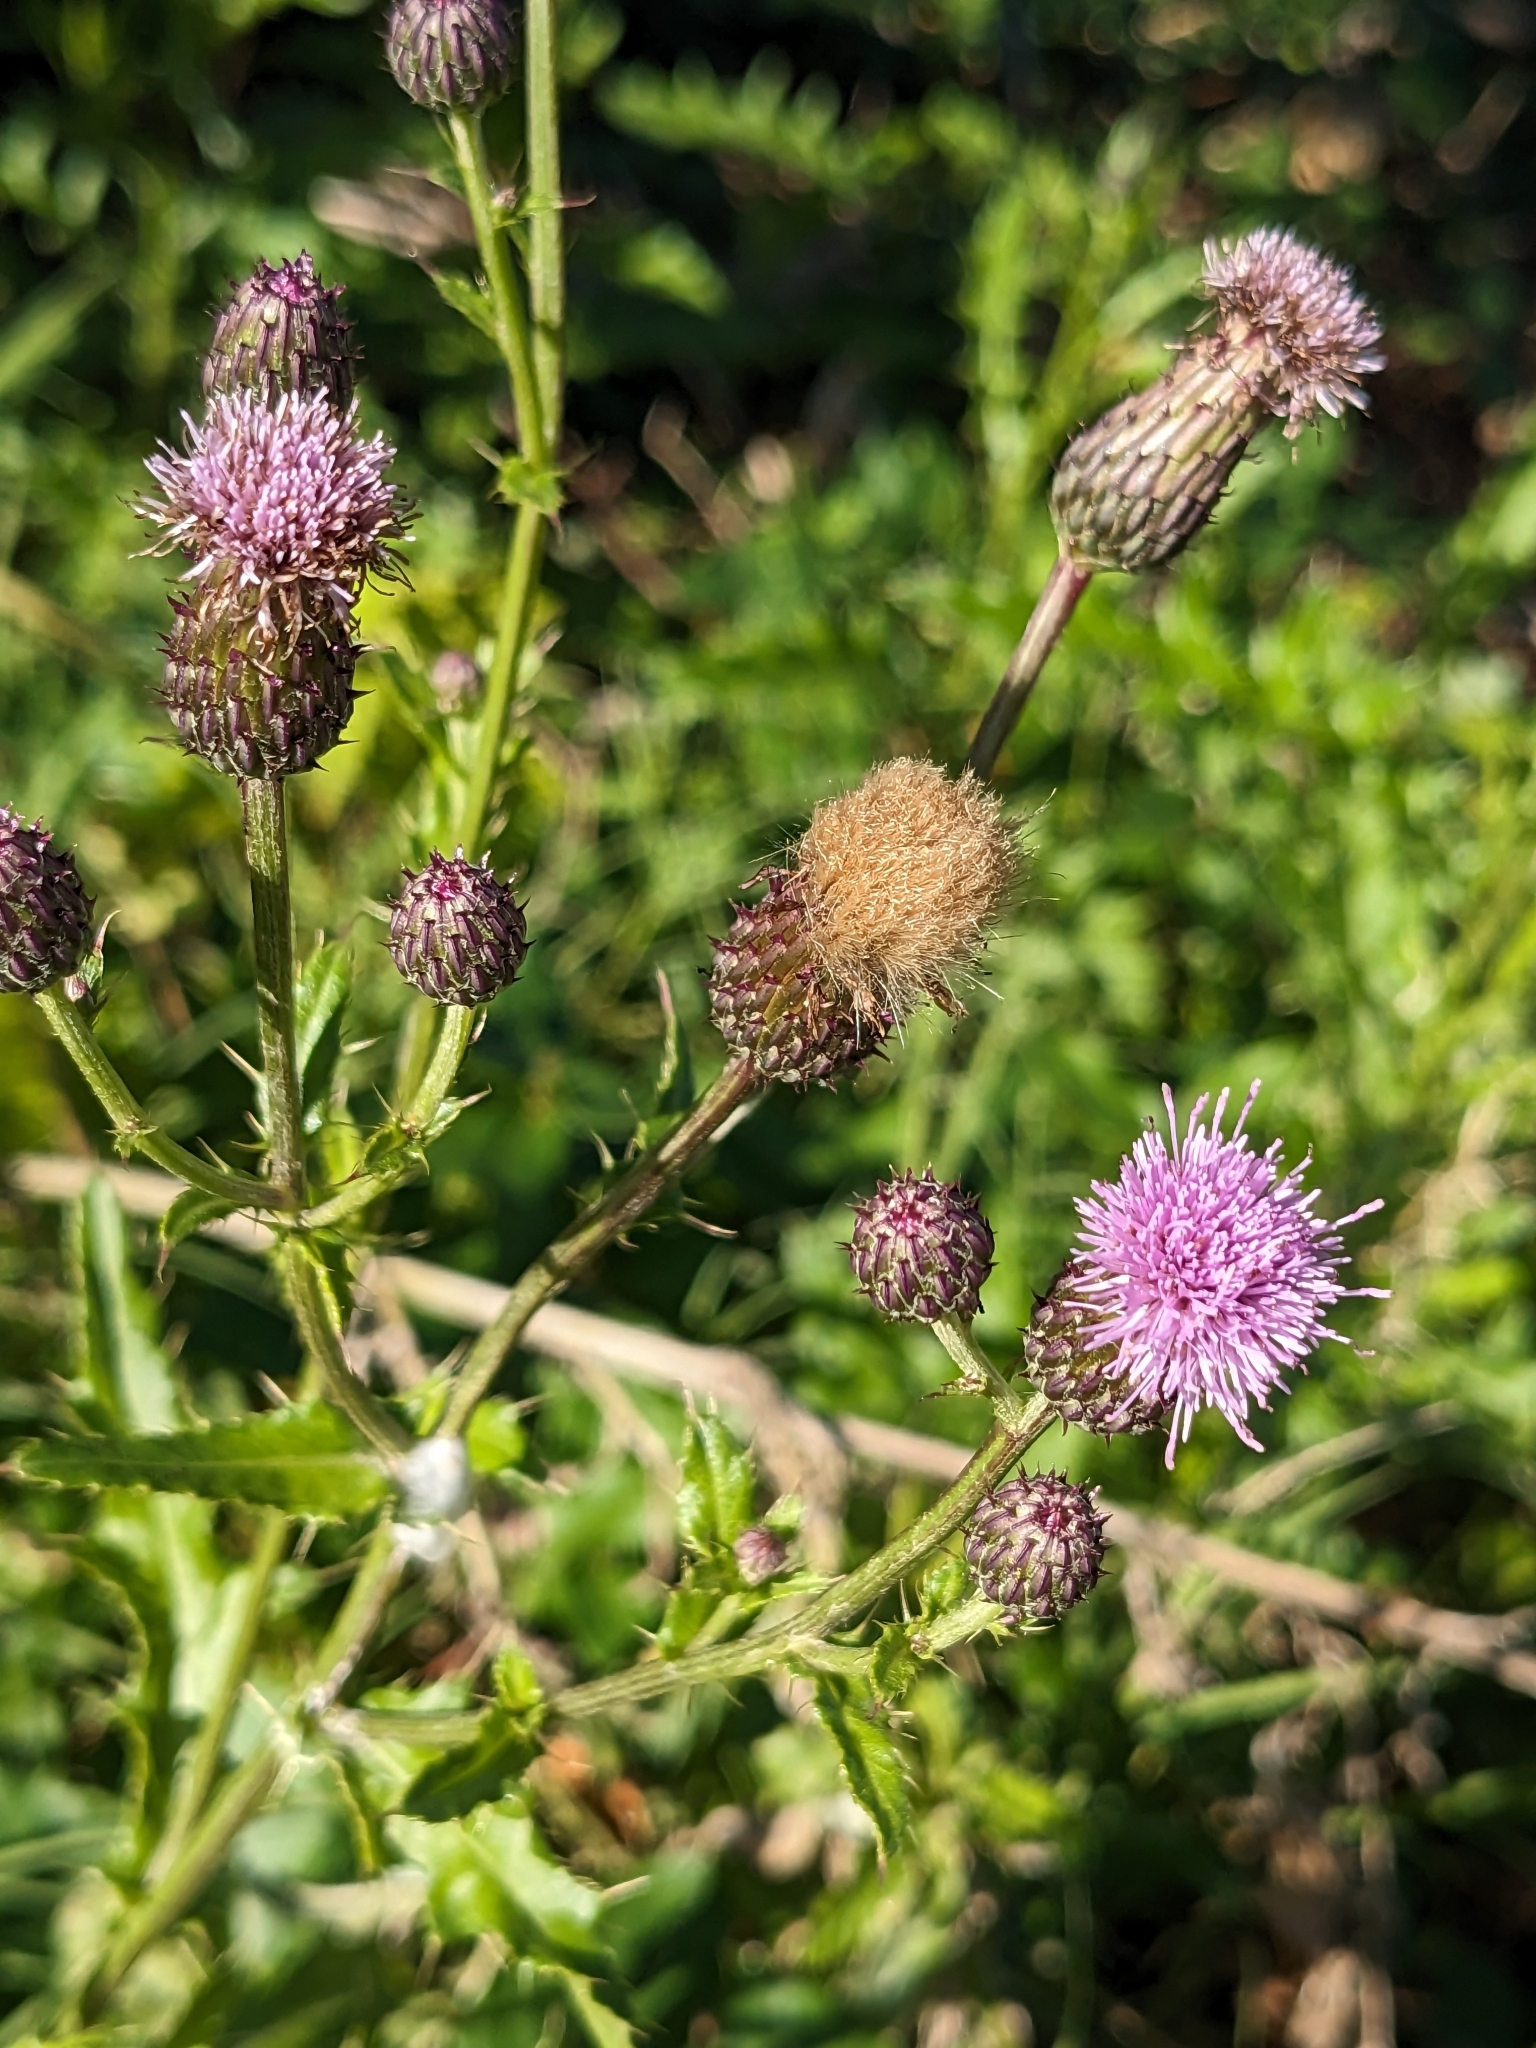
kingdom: Plantae
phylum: Tracheophyta
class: Magnoliopsida
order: Asterales
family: Asteraceae
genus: Cirsium
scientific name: Cirsium arvense
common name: Creeping thistle
